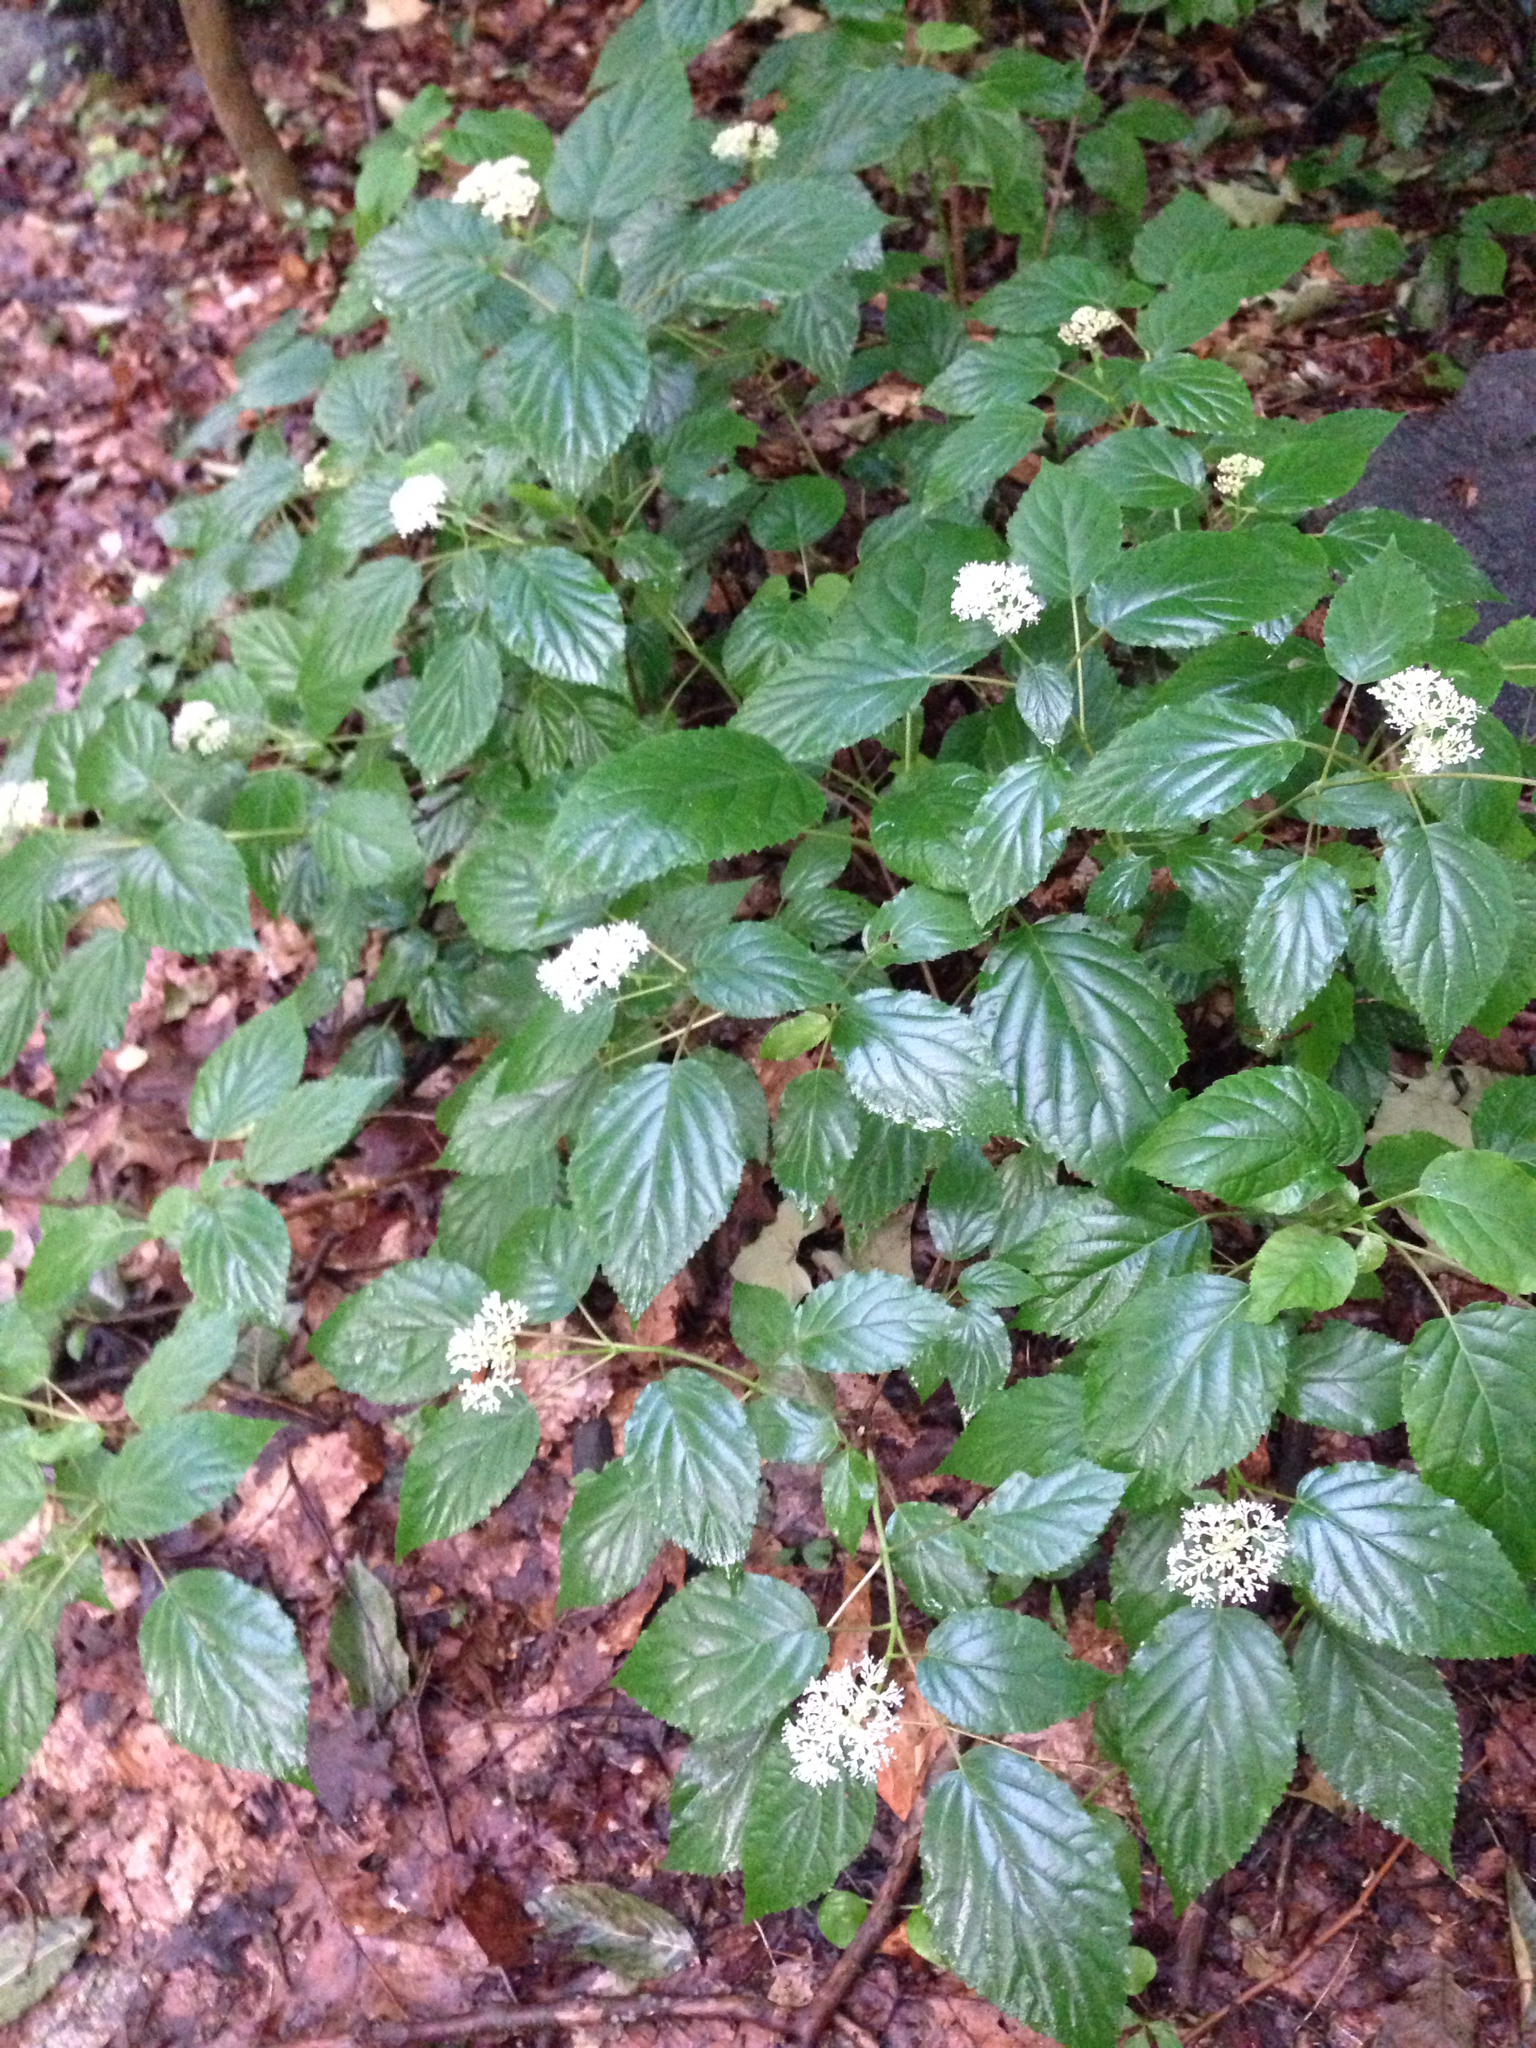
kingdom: Plantae
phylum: Tracheophyta
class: Magnoliopsida
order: Cornales
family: Hydrangeaceae
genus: Hydrangea
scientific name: Hydrangea arborescens
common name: Sevenbark
